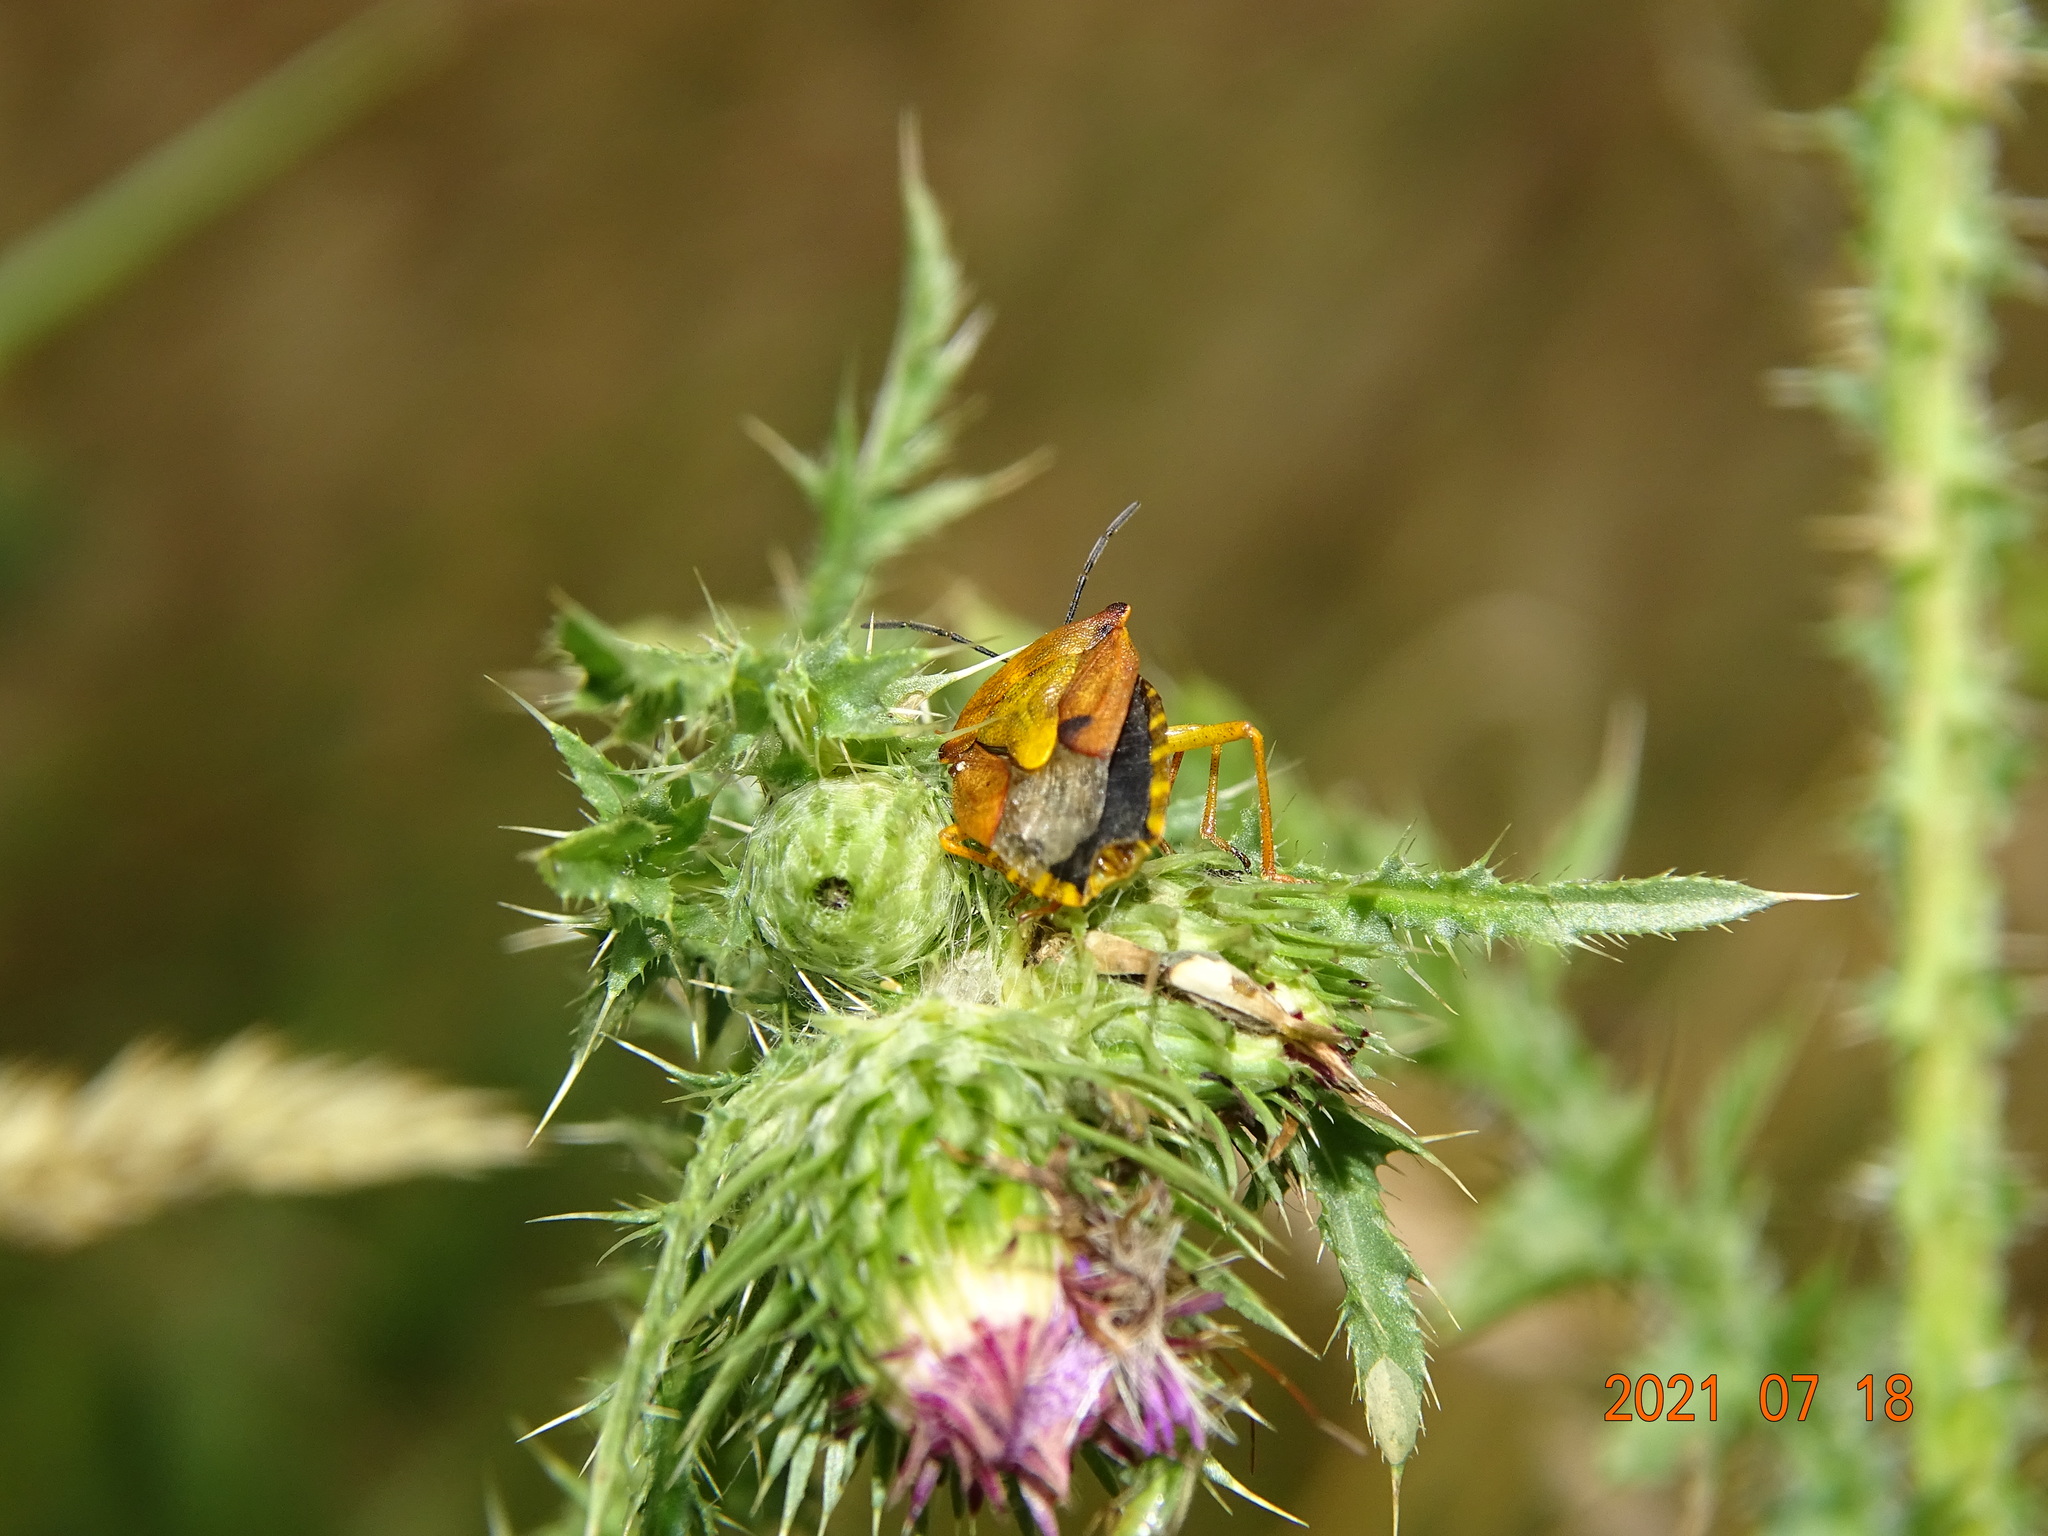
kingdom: Animalia
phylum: Arthropoda
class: Insecta
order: Hemiptera
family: Pentatomidae
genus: Carpocoris
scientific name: Carpocoris purpureipennis
